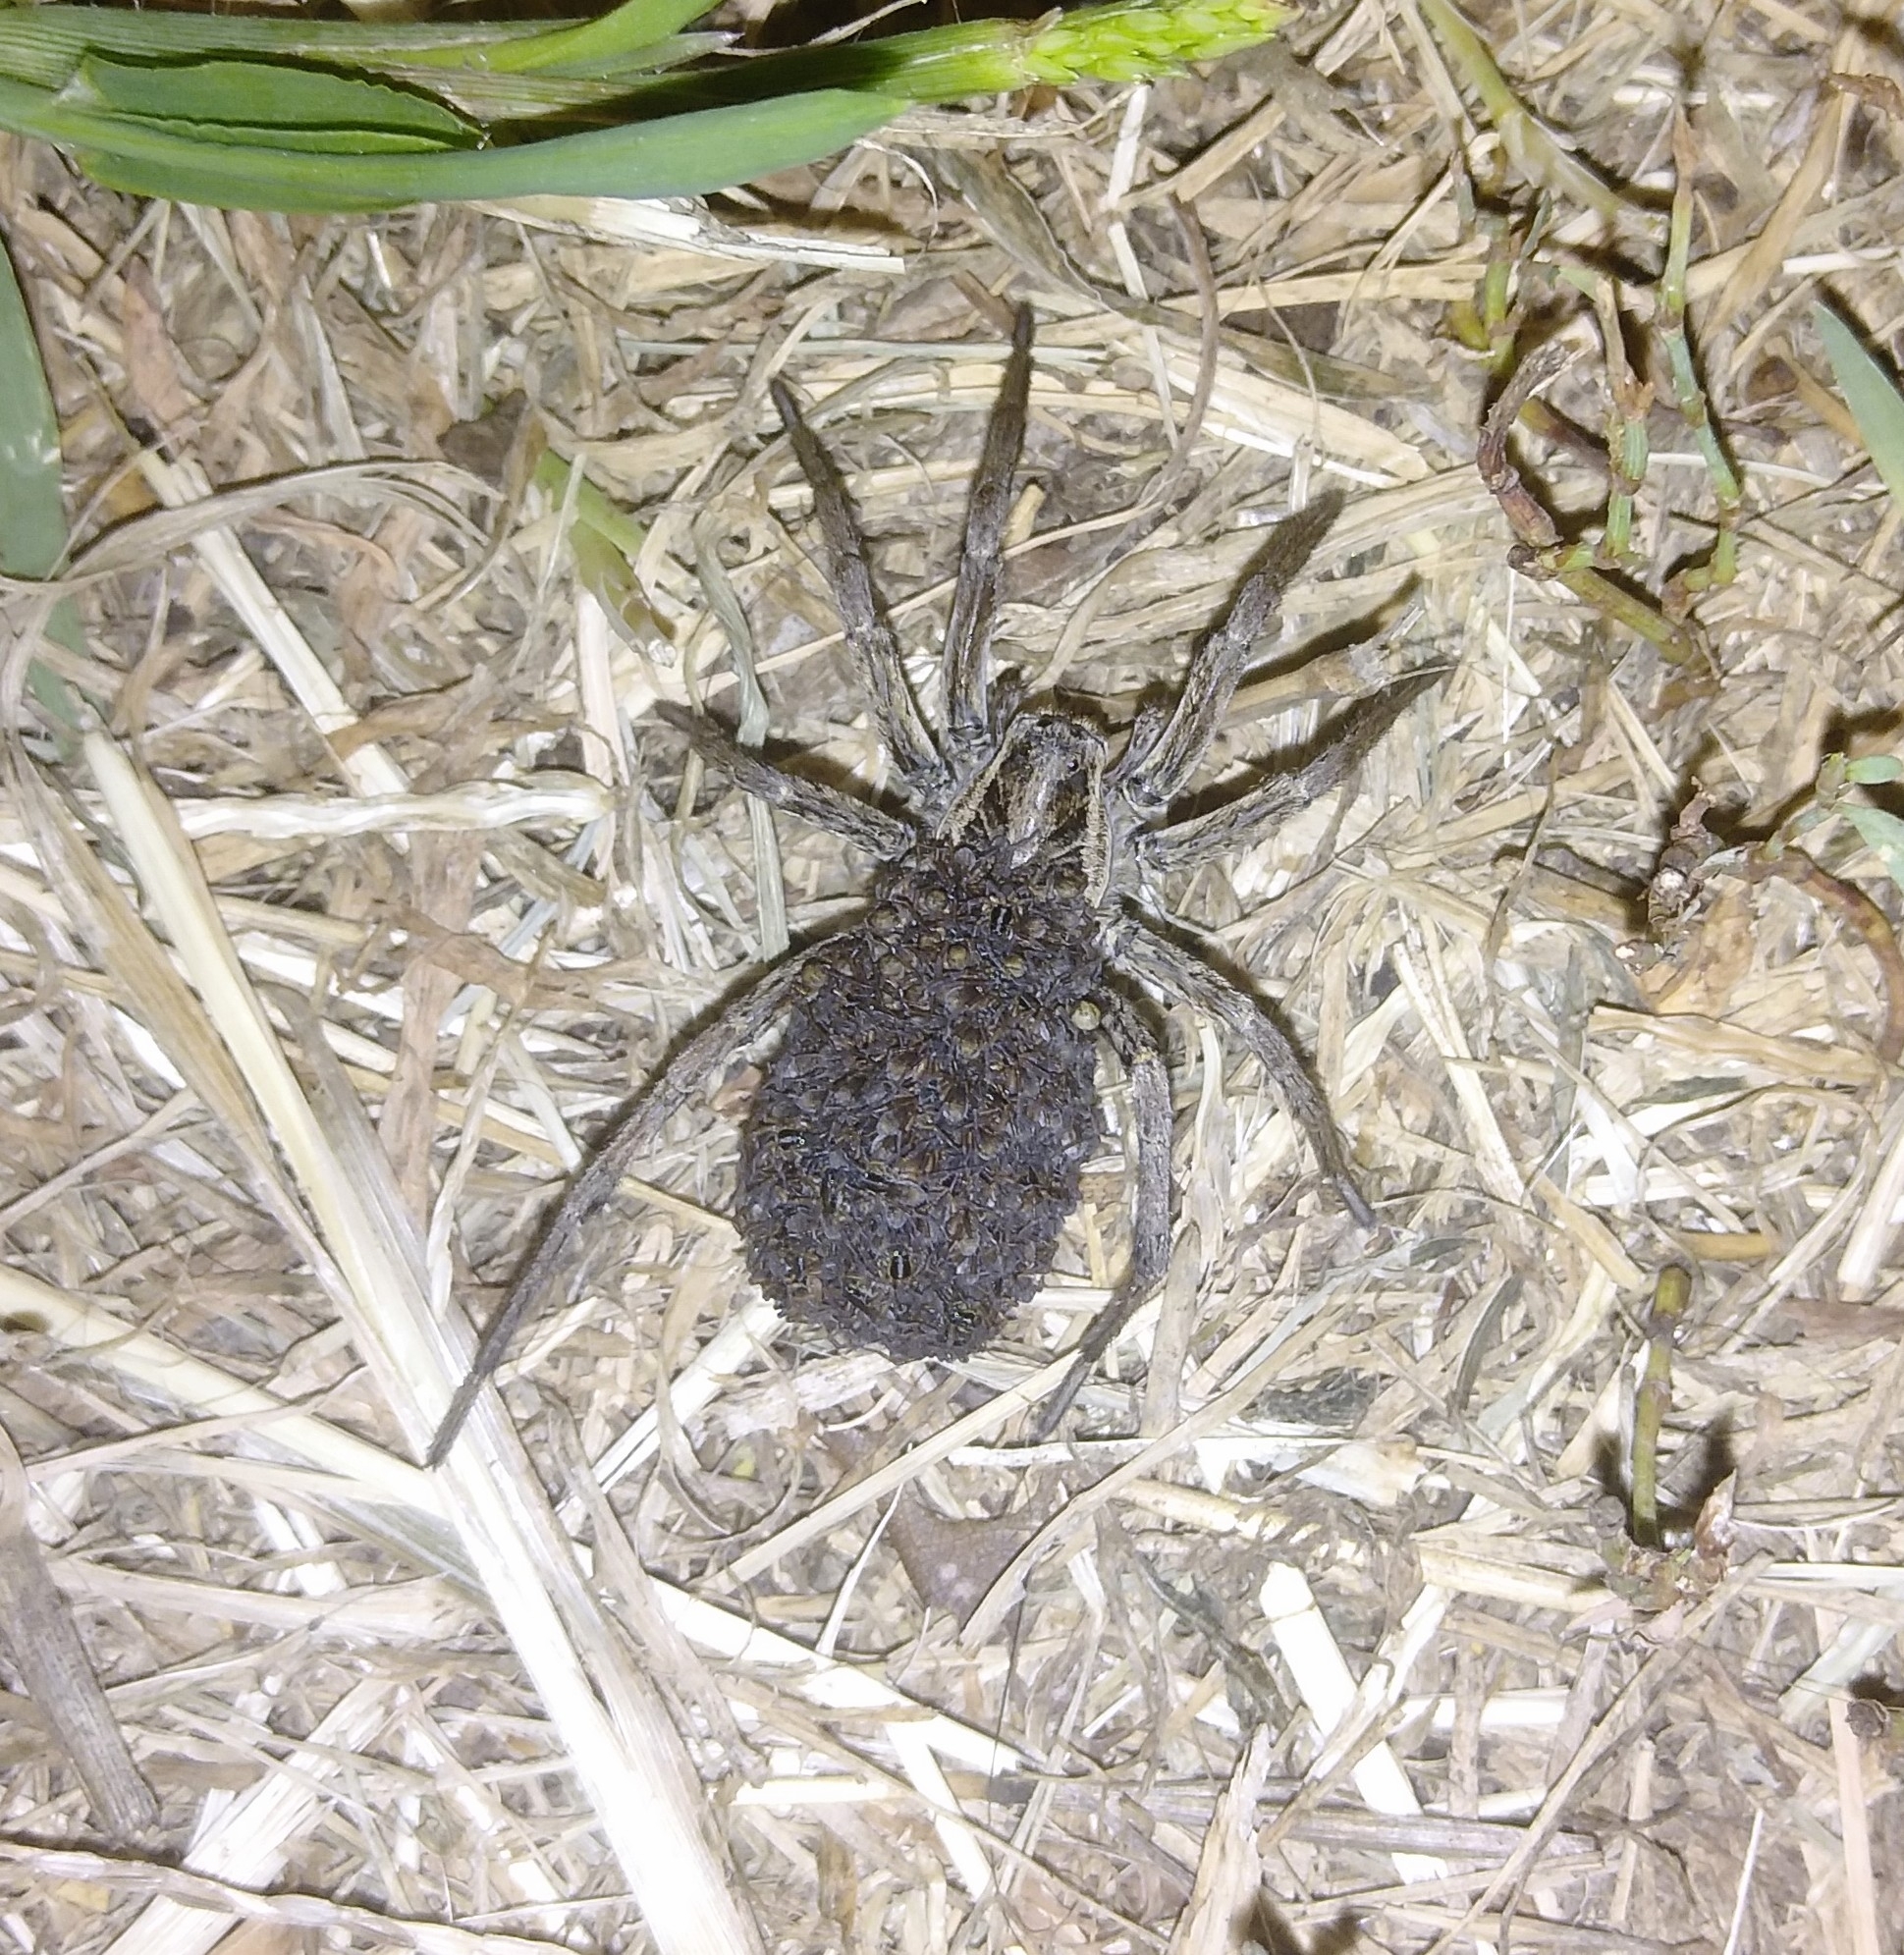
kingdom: Animalia
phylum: Arthropoda
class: Arachnida
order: Araneae
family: Lycosidae
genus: Hogna
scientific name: Hogna radiata
